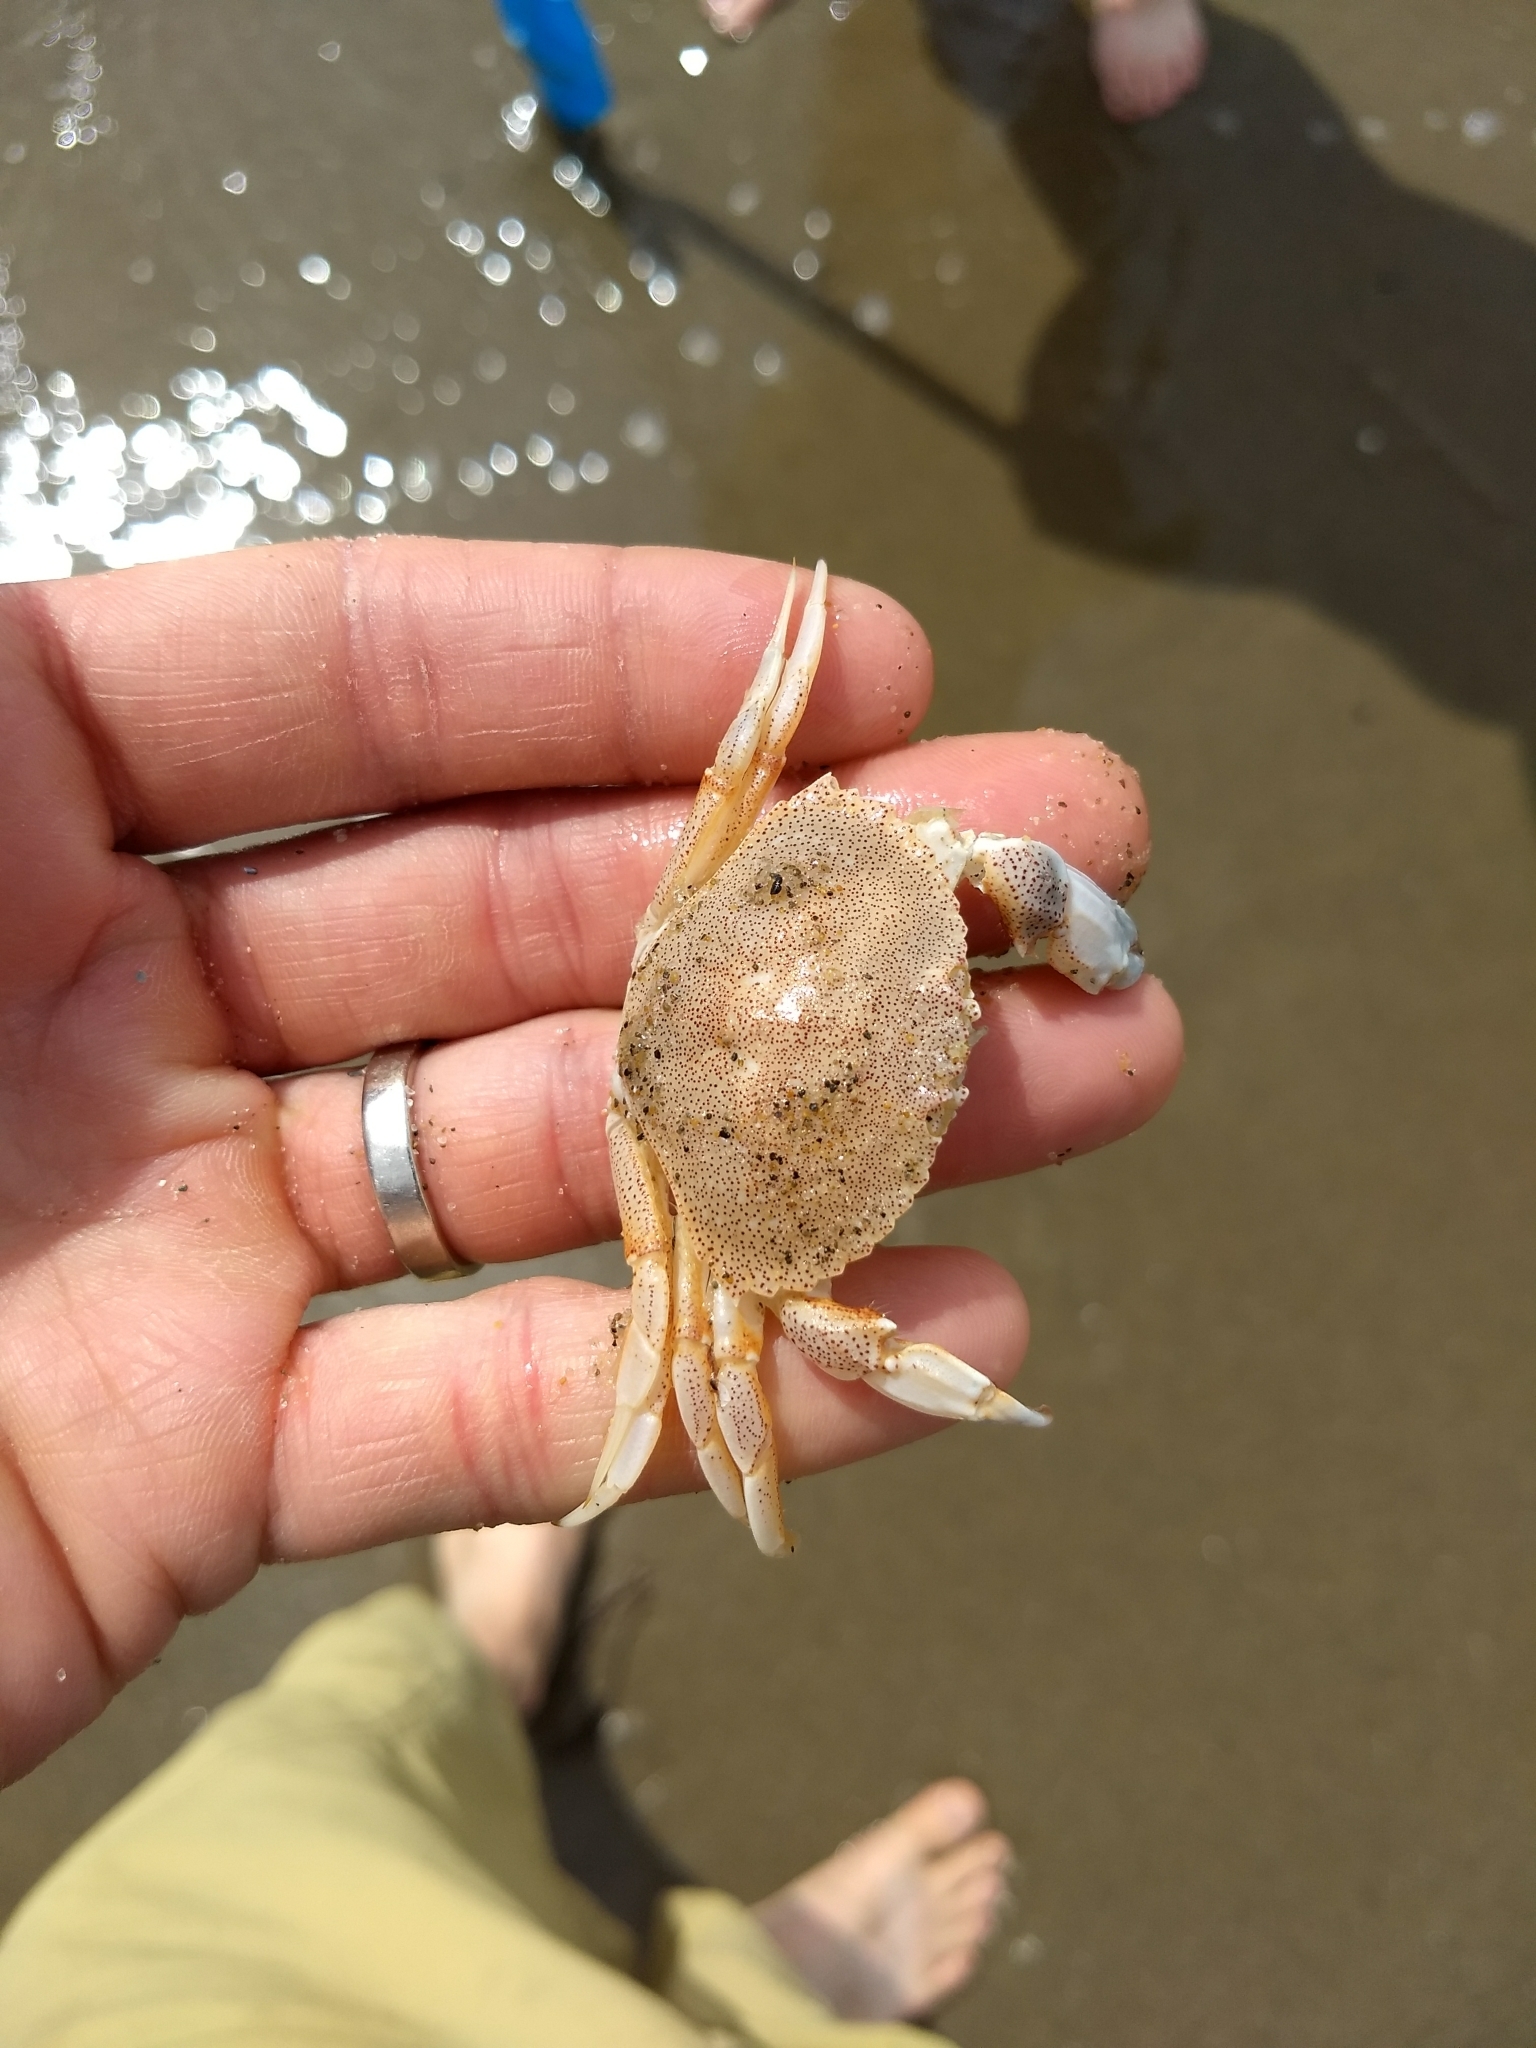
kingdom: Animalia
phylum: Arthropoda
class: Malacostraca
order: Decapoda
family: Cancridae
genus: Cancer
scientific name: Cancer irroratus
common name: Atlantic rock crab
